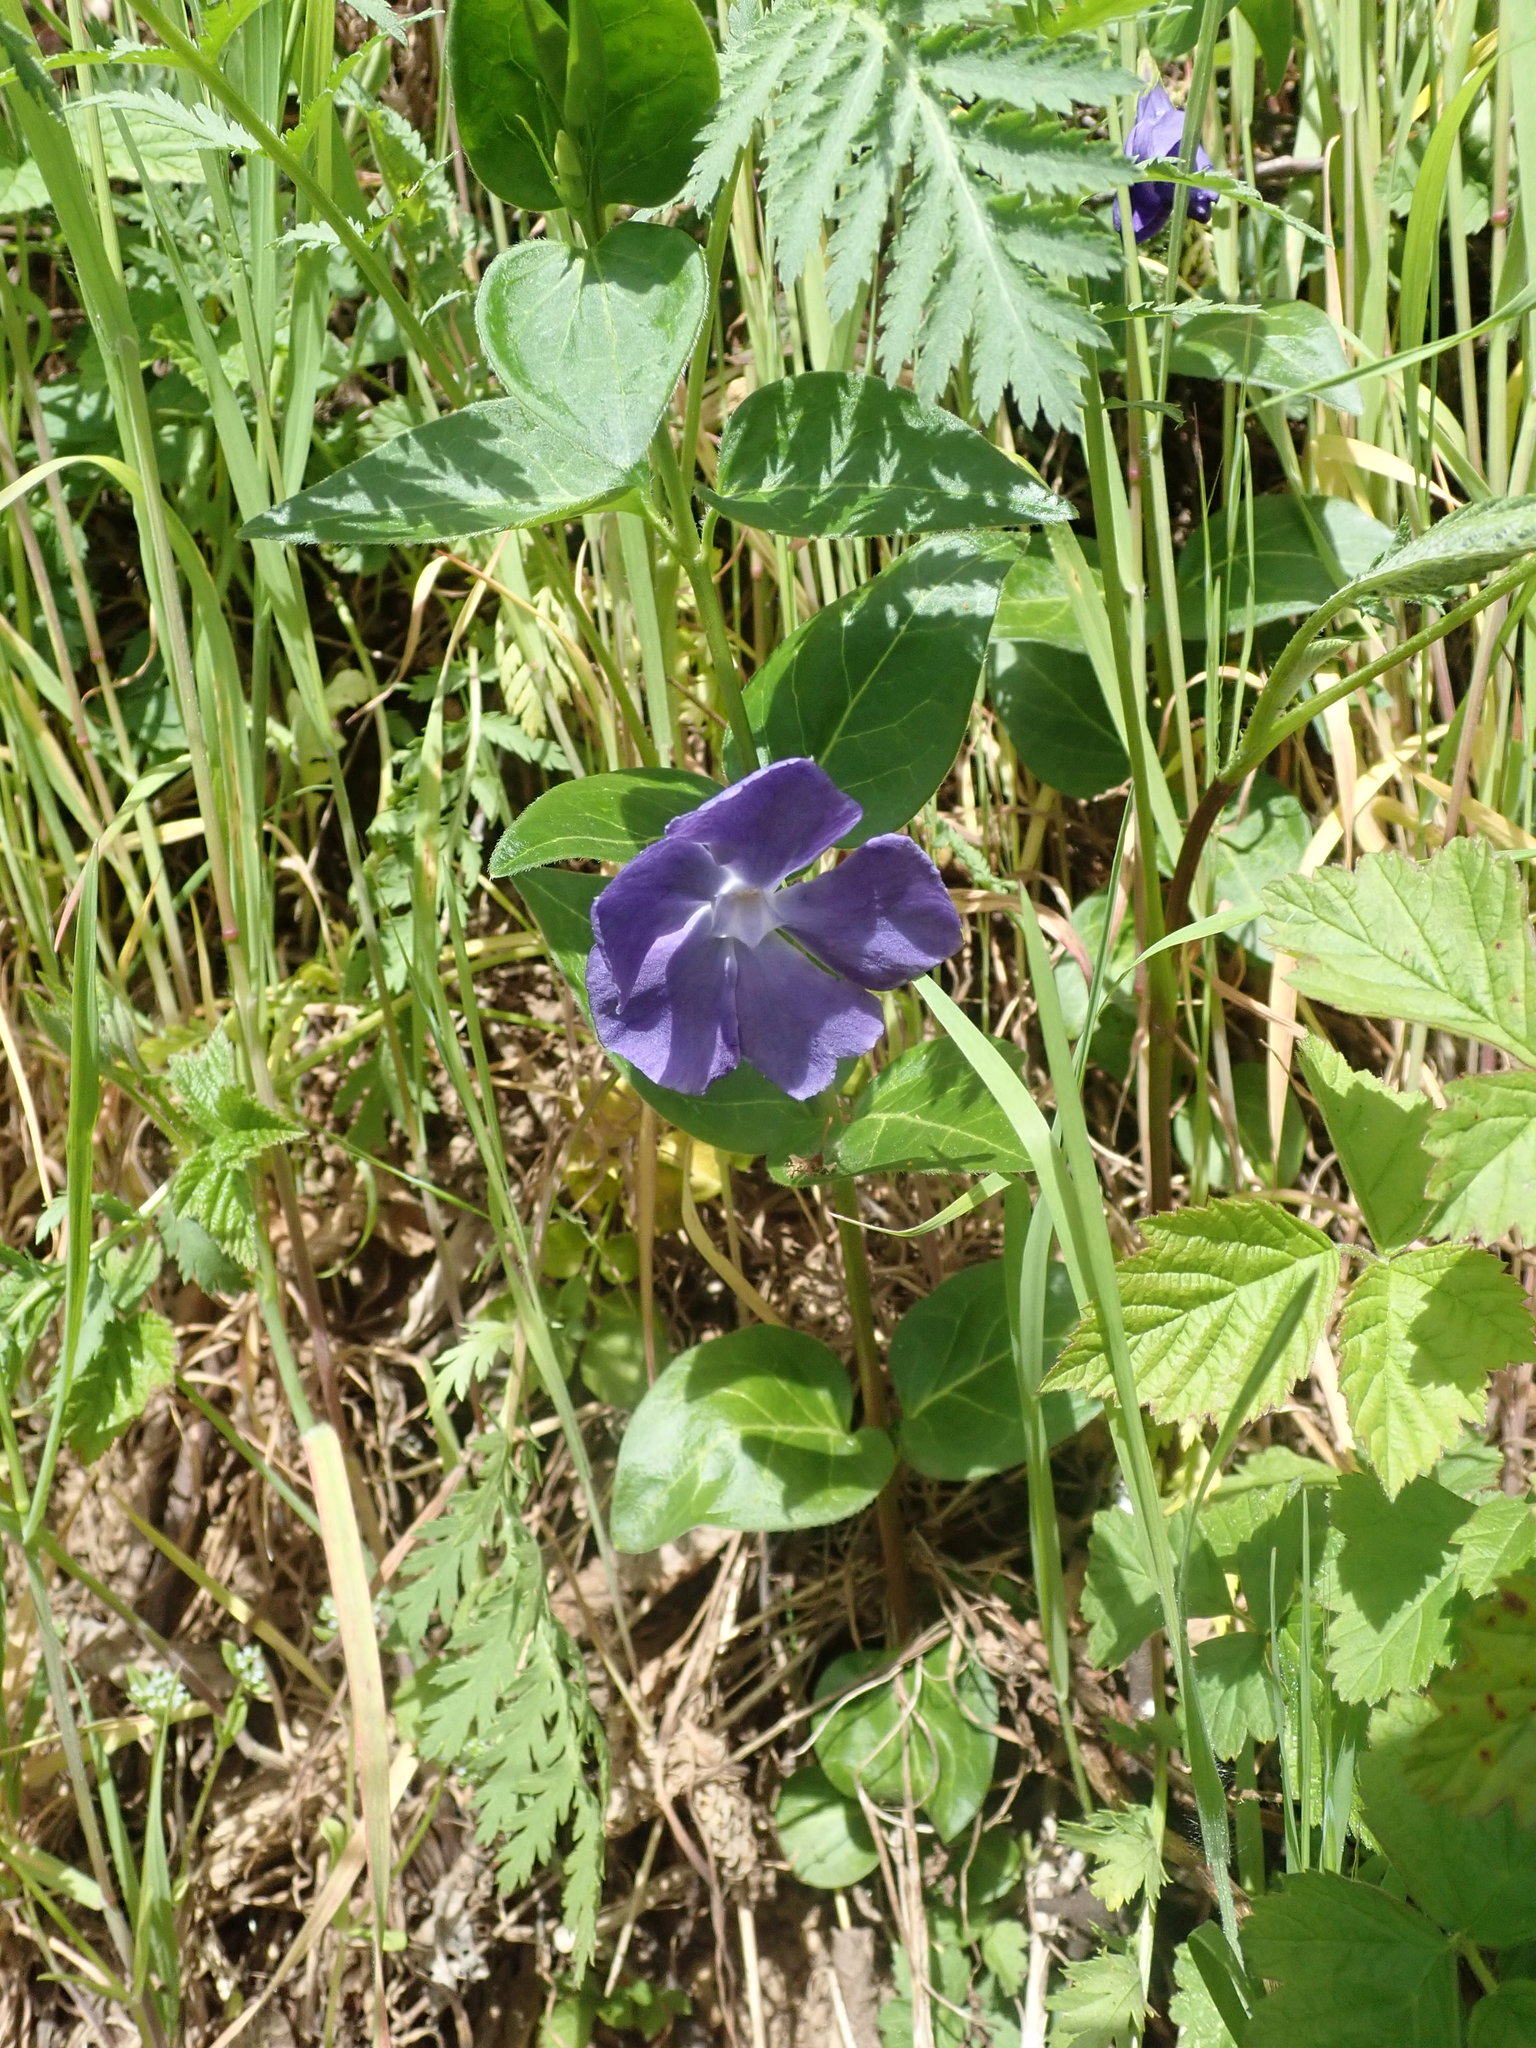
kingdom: Plantae
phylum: Tracheophyta
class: Magnoliopsida
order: Gentianales
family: Apocynaceae
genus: Vinca
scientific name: Vinca major
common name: Greater periwinkle
